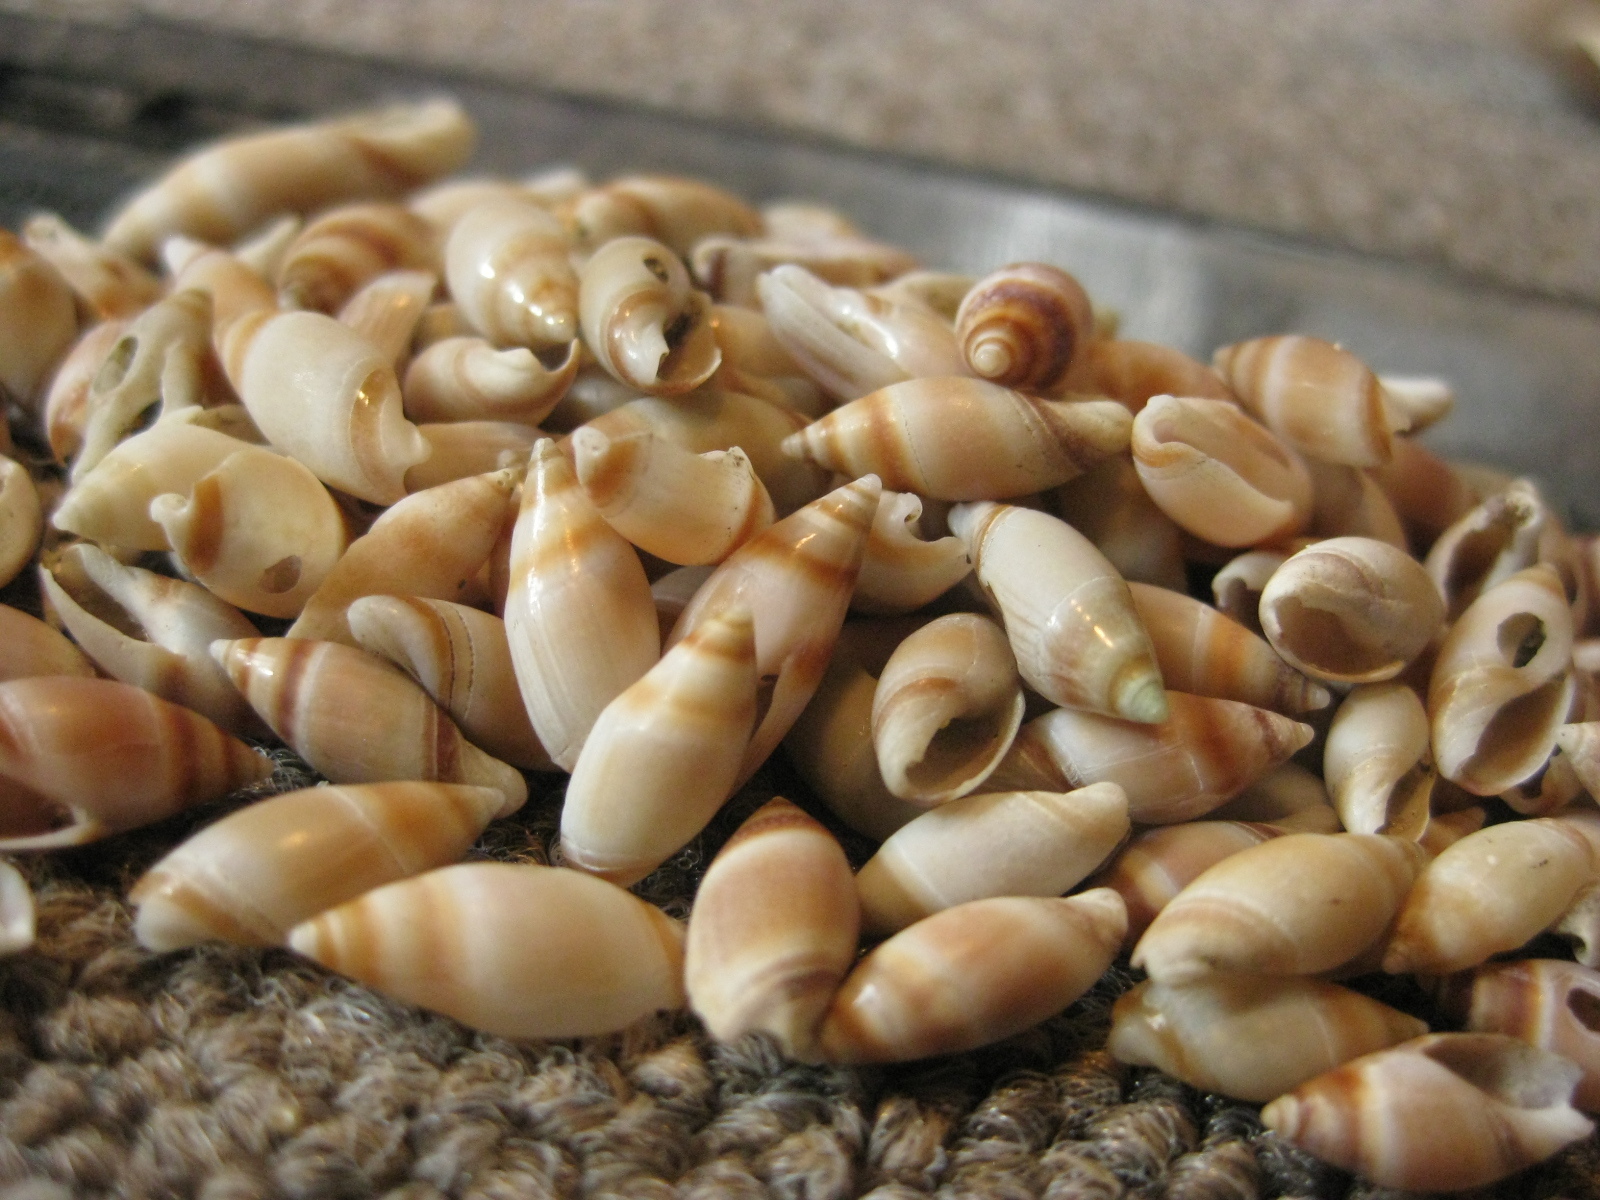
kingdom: Animalia
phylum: Mollusca
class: Gastropoda
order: Neogastropoda
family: Ancillariidae
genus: Amalda
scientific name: Amalda novaezelandiae
